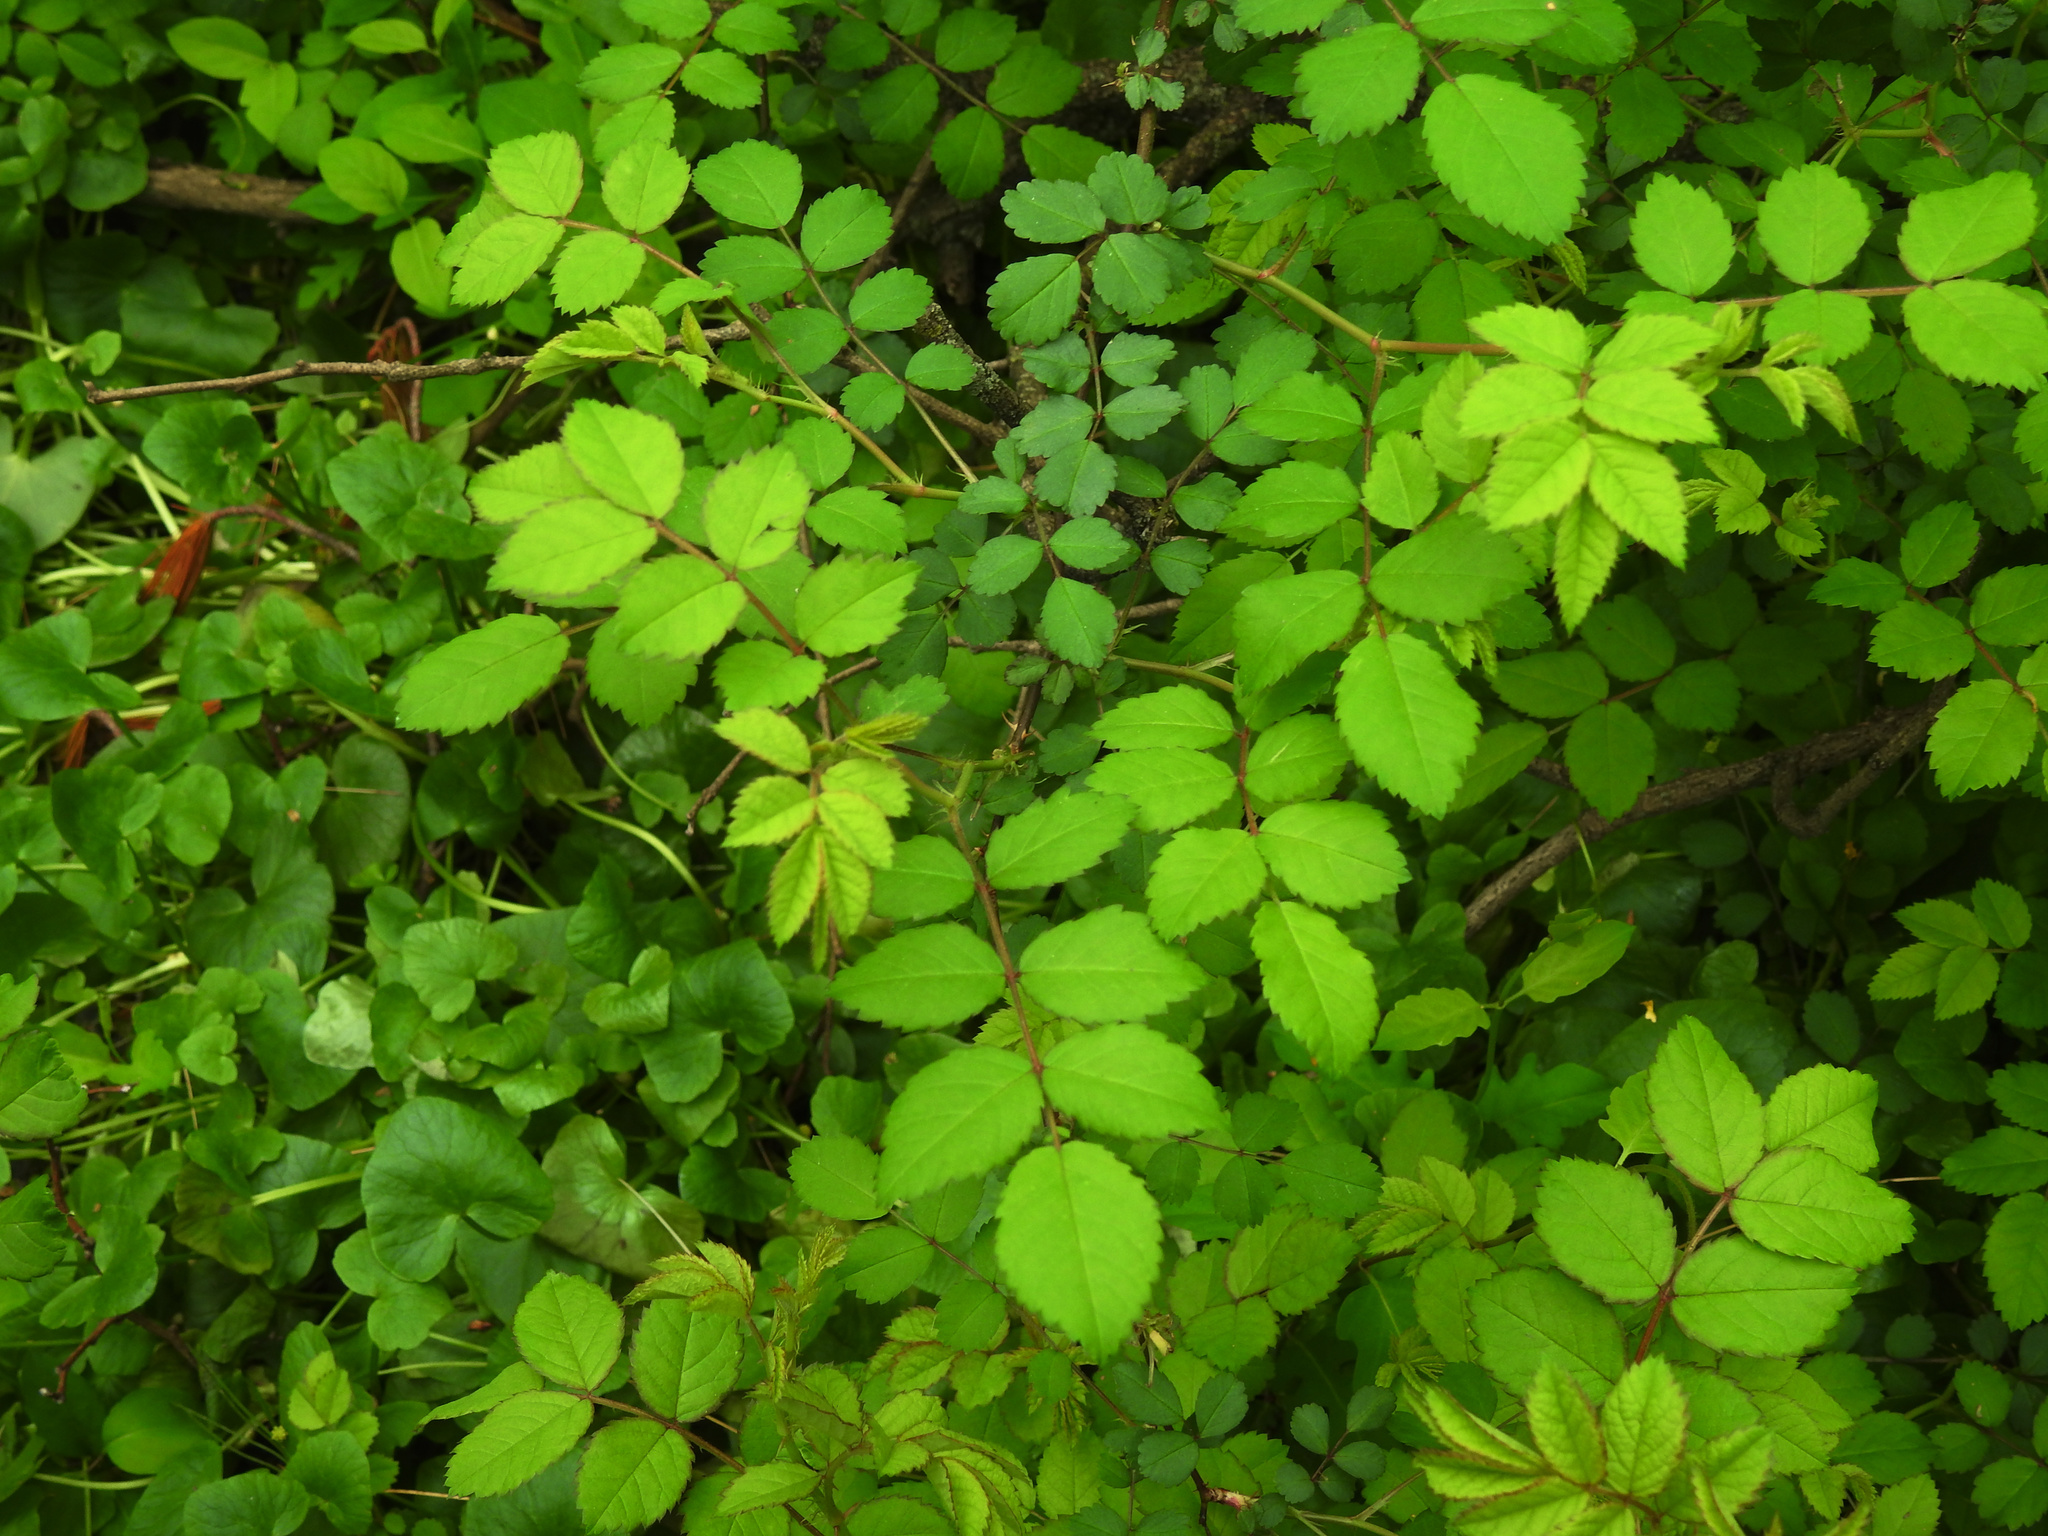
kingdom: Plantae
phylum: Tracheophyta
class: Magnoliopsida
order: Rosales
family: Rosaceae
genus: Rosa
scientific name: Rosa multiflora
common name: Multiflora rose
